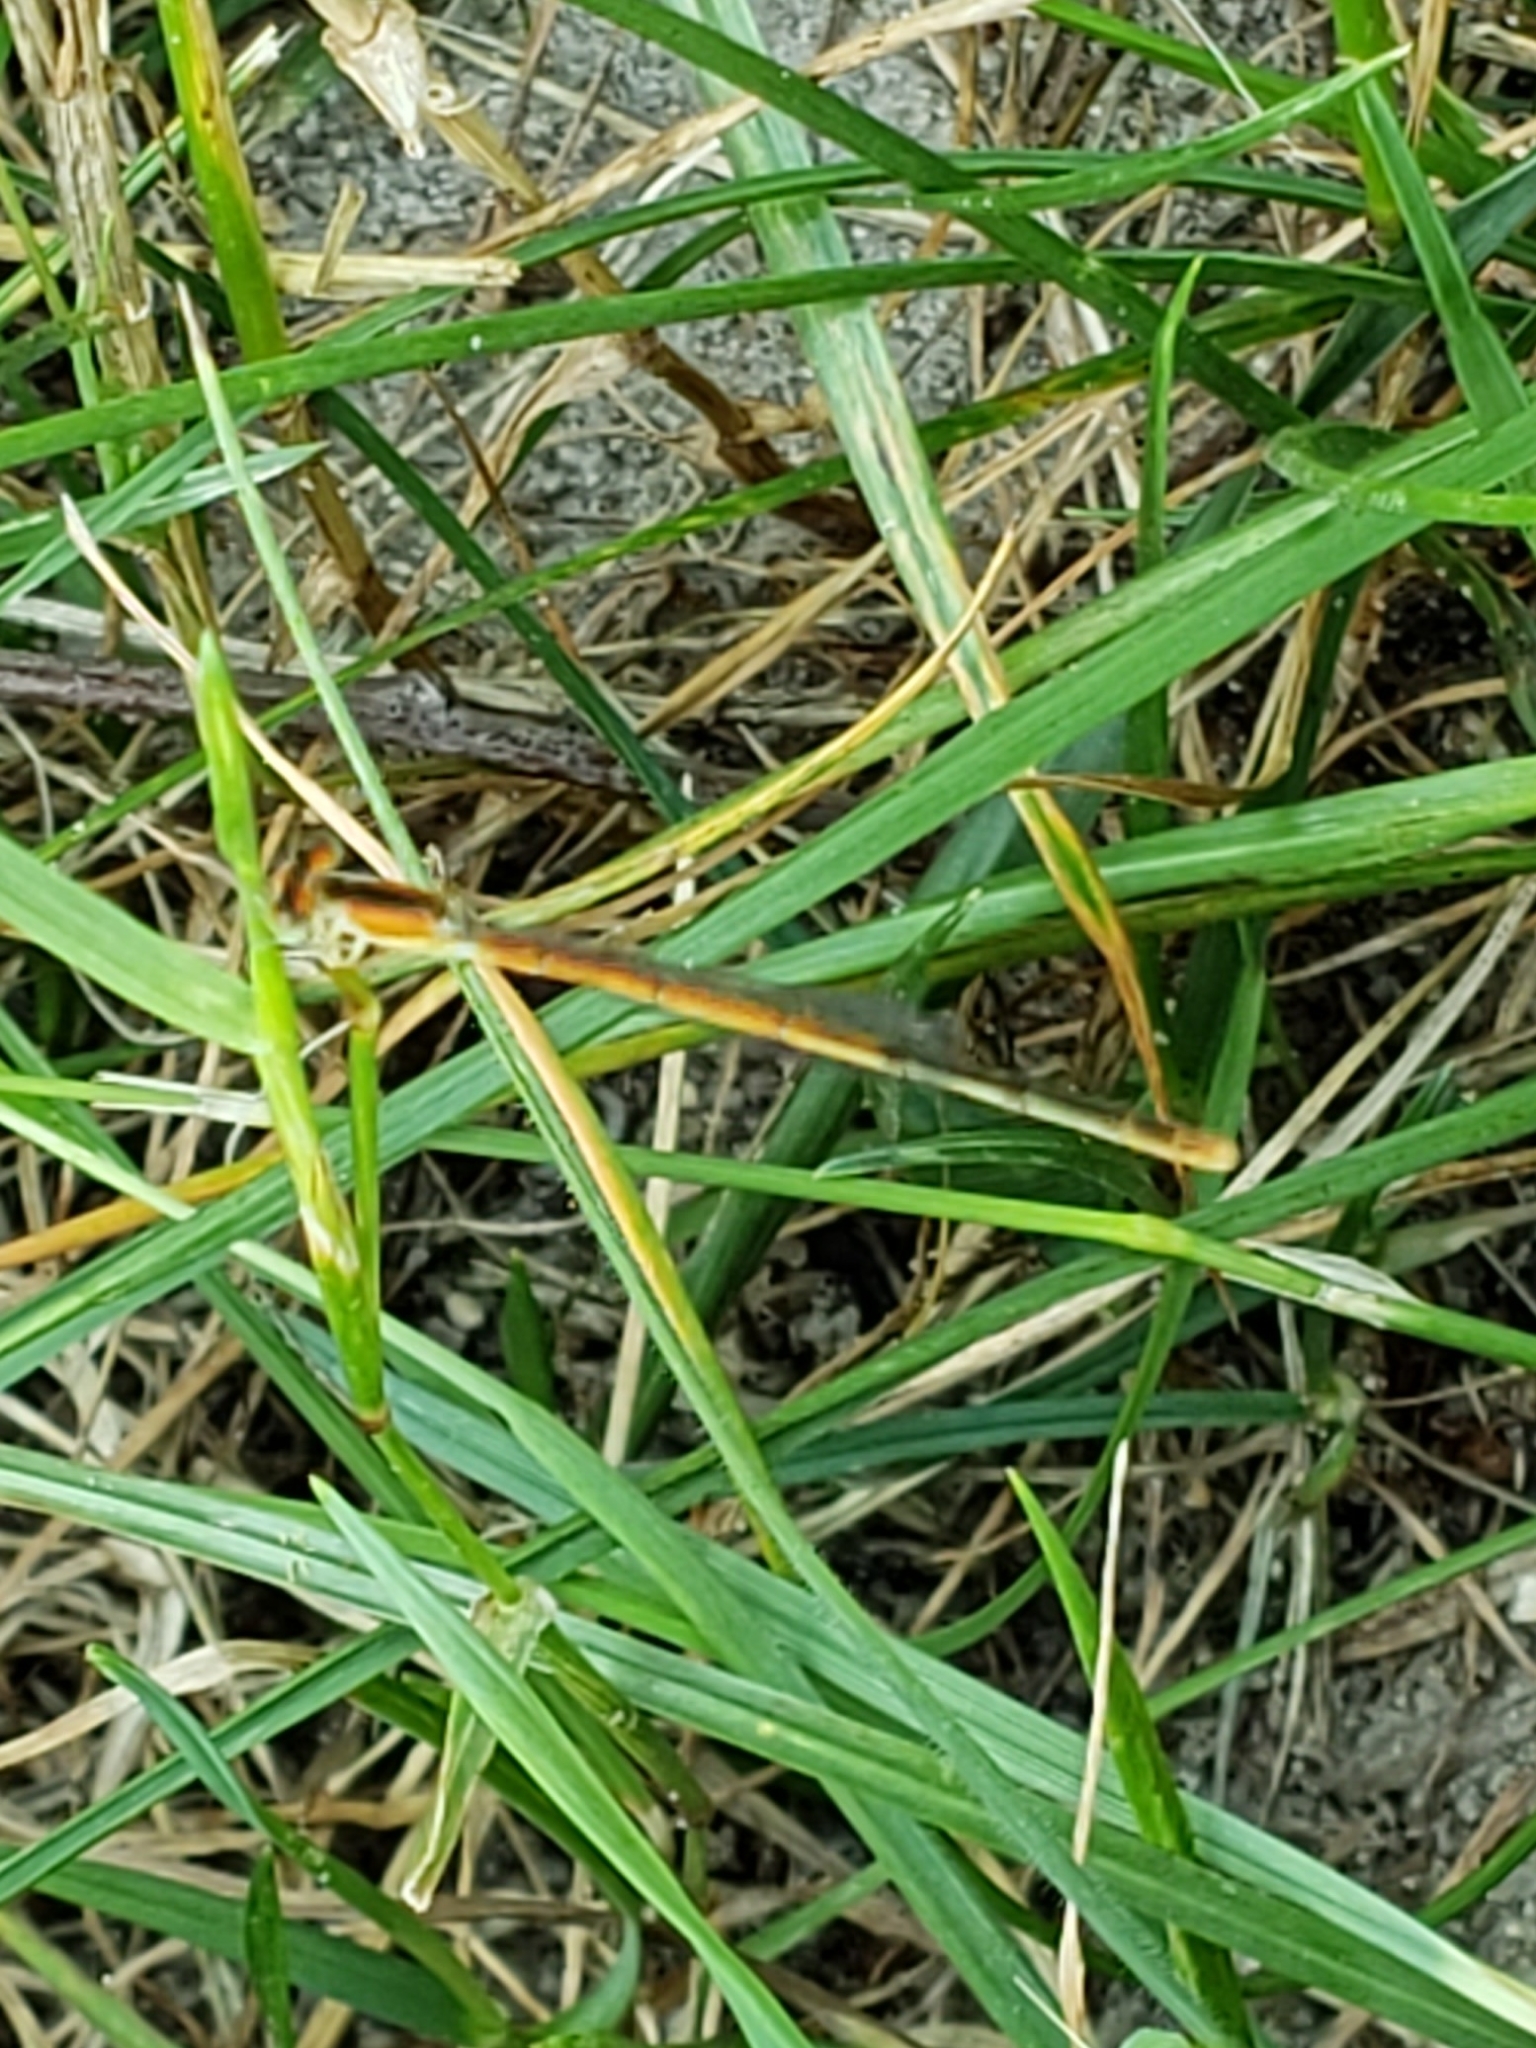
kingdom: Animalia
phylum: Arthropoda
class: Insecta
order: Odonata
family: Coenagrionidae
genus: Ischnura
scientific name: Ischnura hastata
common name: Citrine forktail
